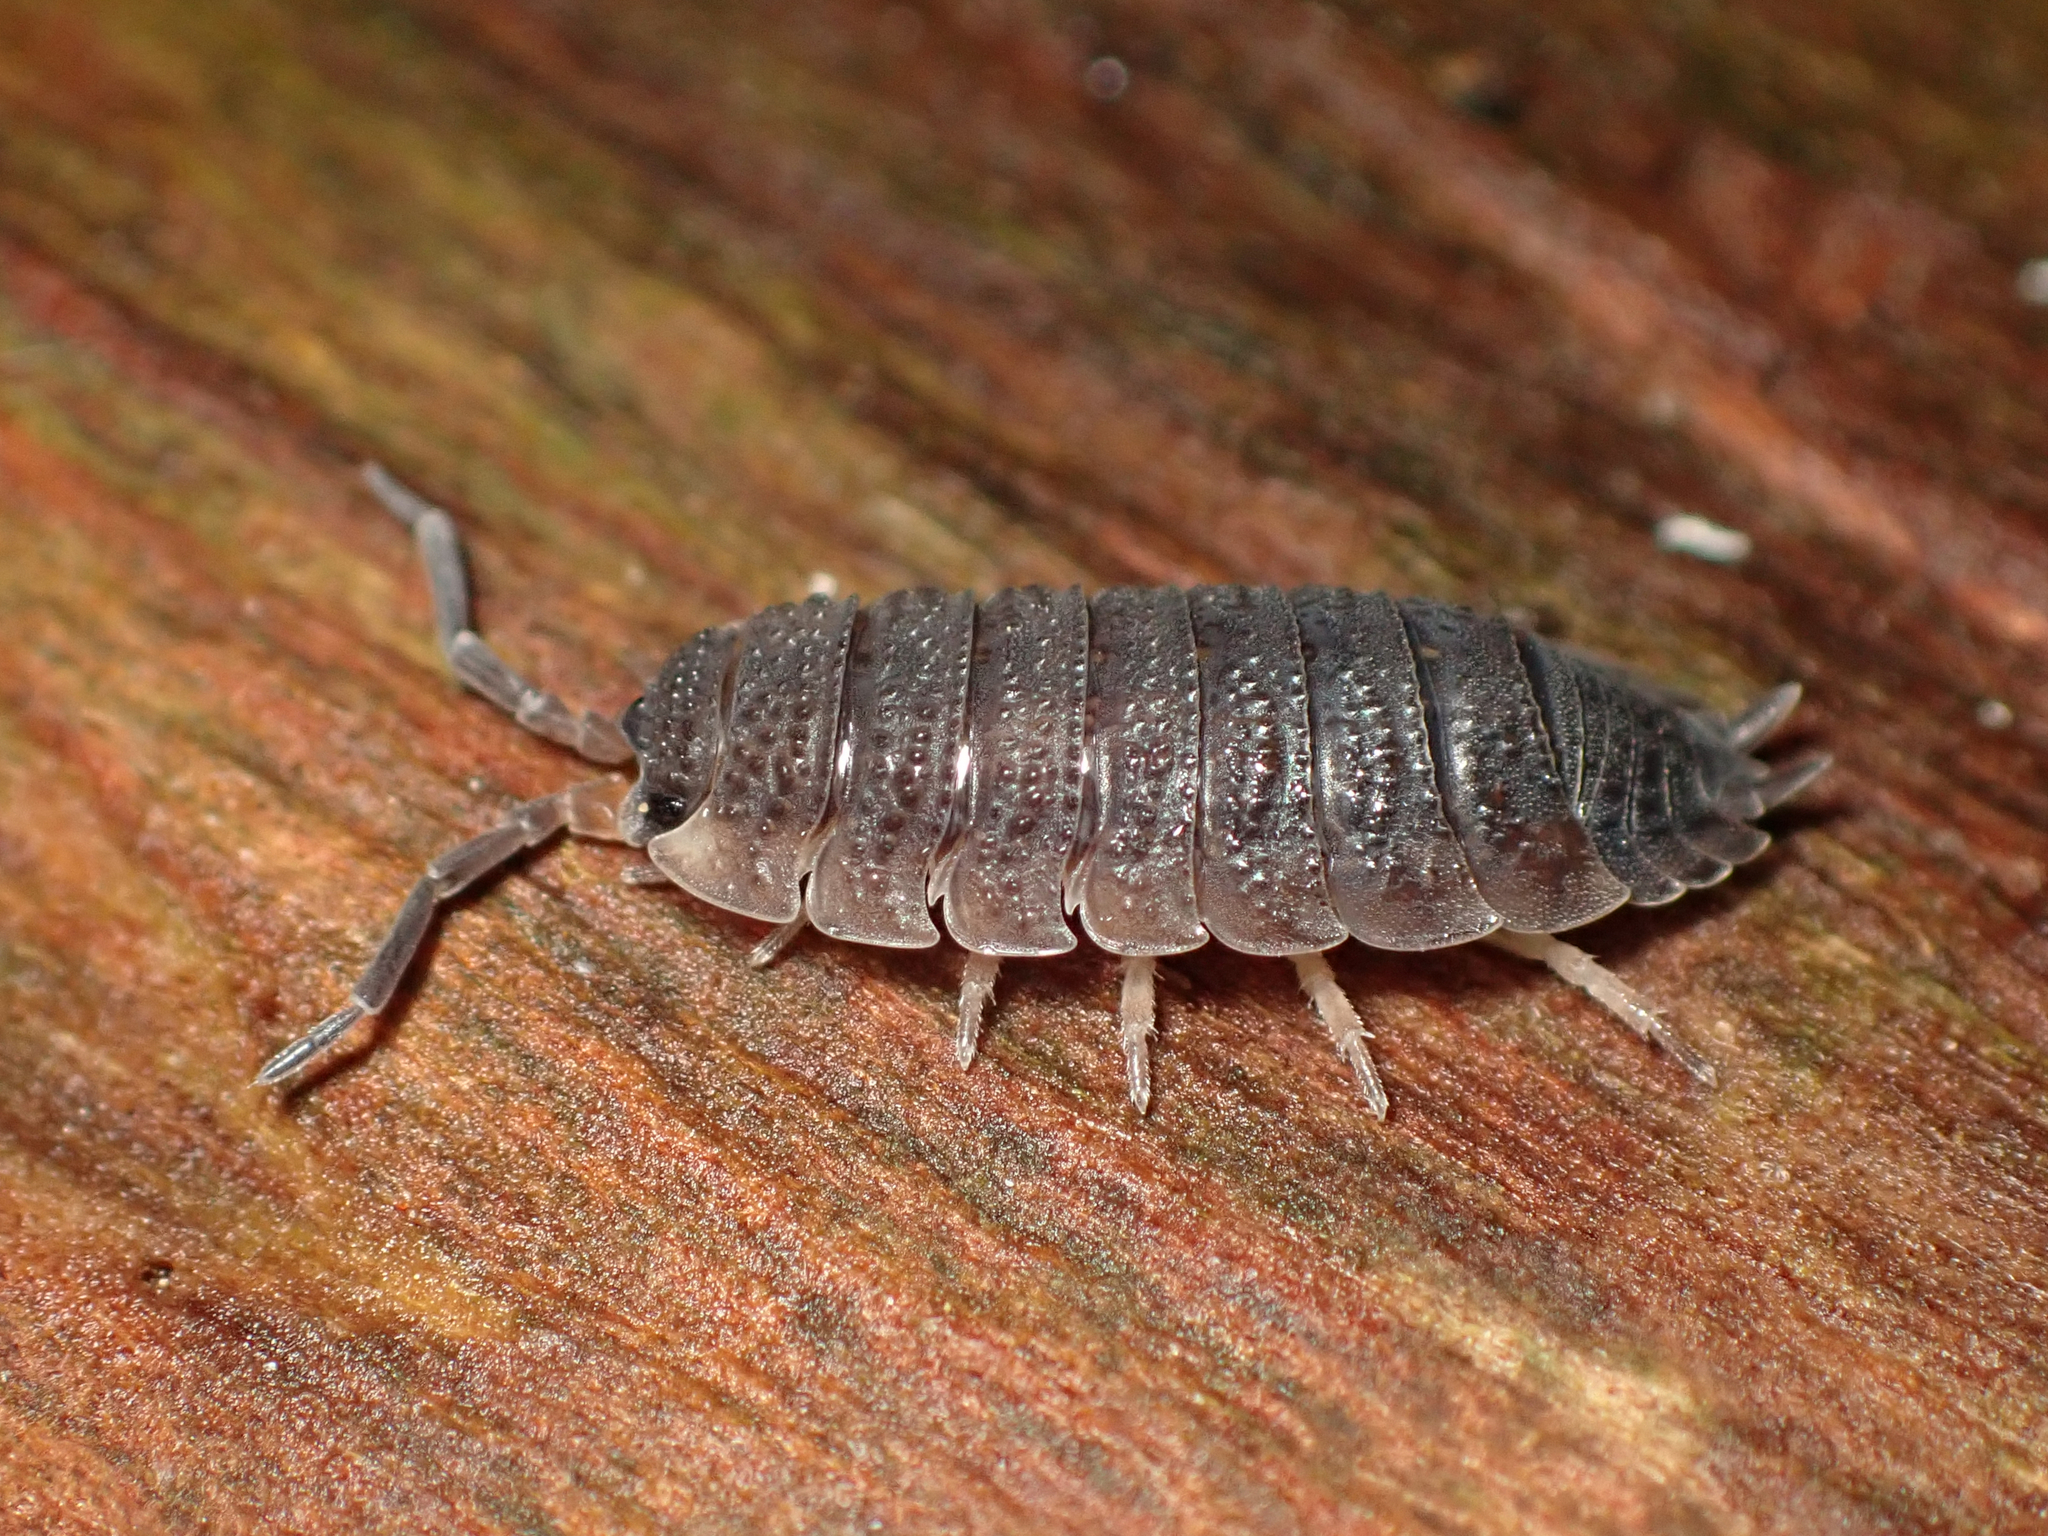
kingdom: Animalia
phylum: Arthropoda
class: Malacostraca
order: Isopoda
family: Porcellionidae
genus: Porcellio
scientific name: Porcellio scaber
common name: Common rough woodlouse
